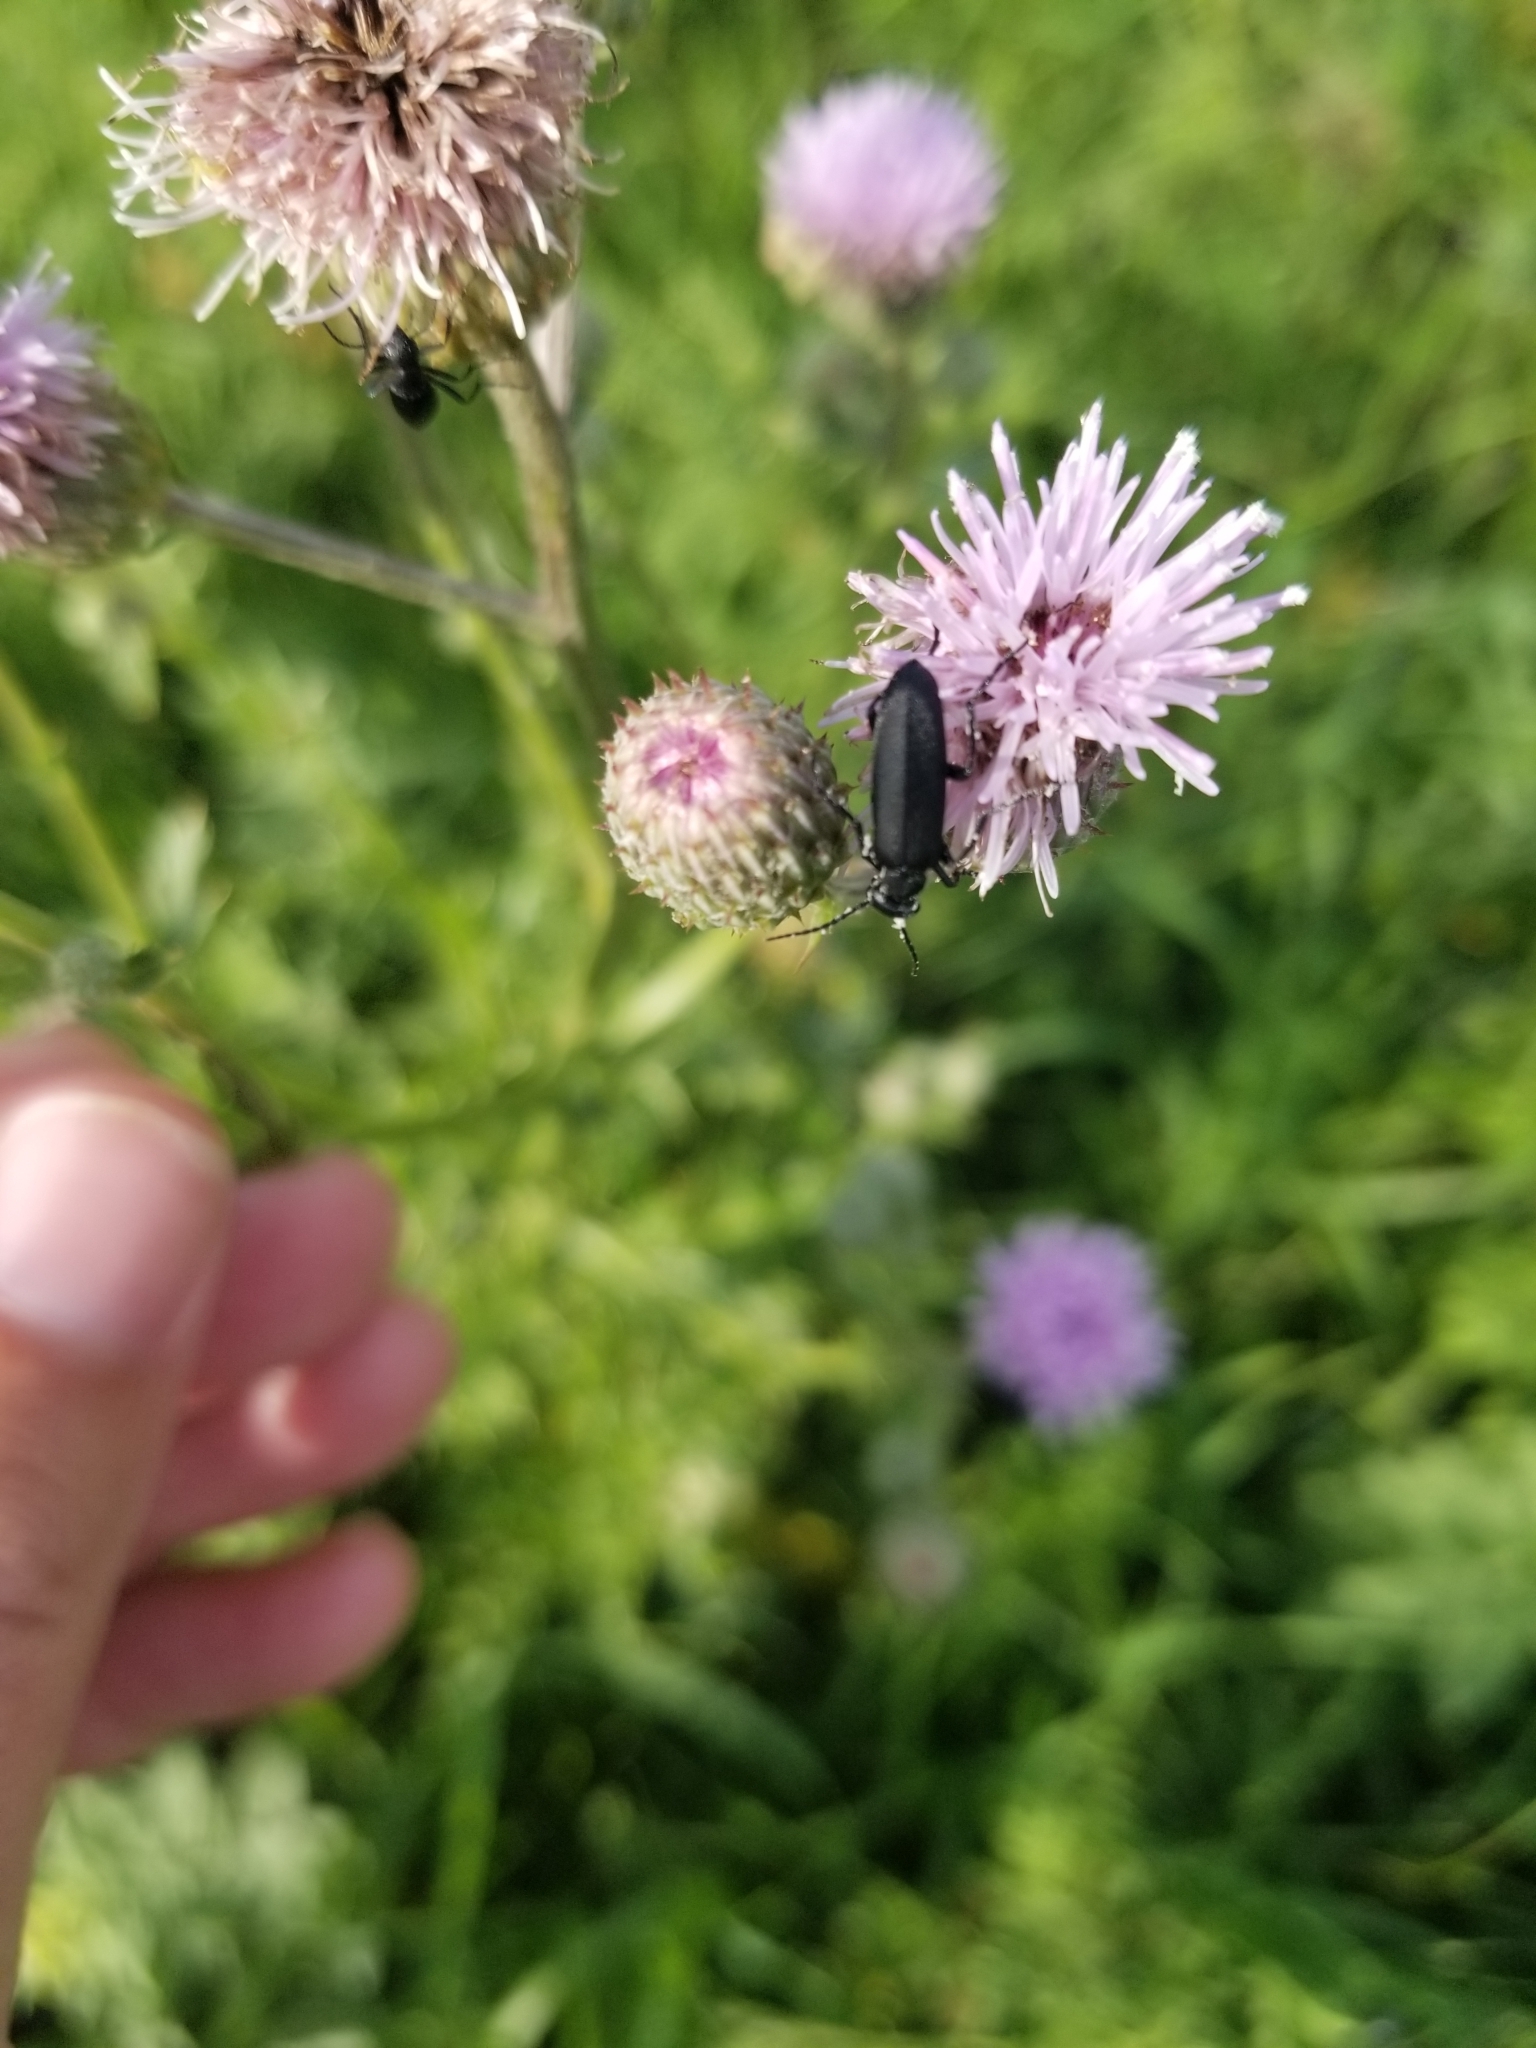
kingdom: Animalia
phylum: Arthropoda
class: Insecta
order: Coleoptera
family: Meloidae
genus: Epicauta
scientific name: Epicauta pensylvanica
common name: Black blister beetle
